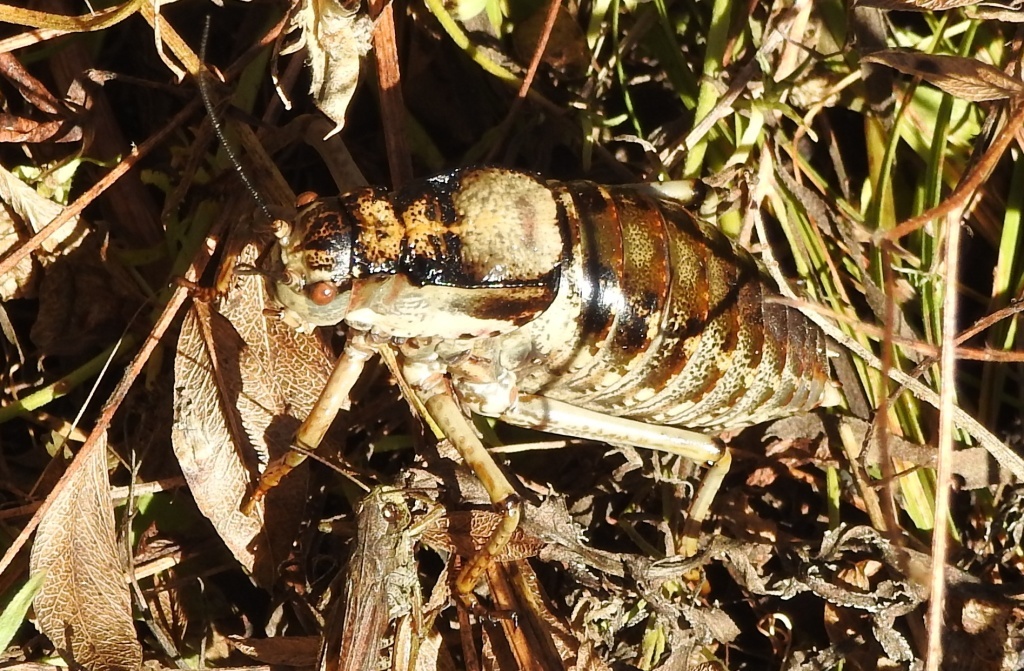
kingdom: Animalia
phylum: Arthropoda
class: Insecta
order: Orthoptera
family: Tettigoniidae
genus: Deracantha
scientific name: Deracantha onos
